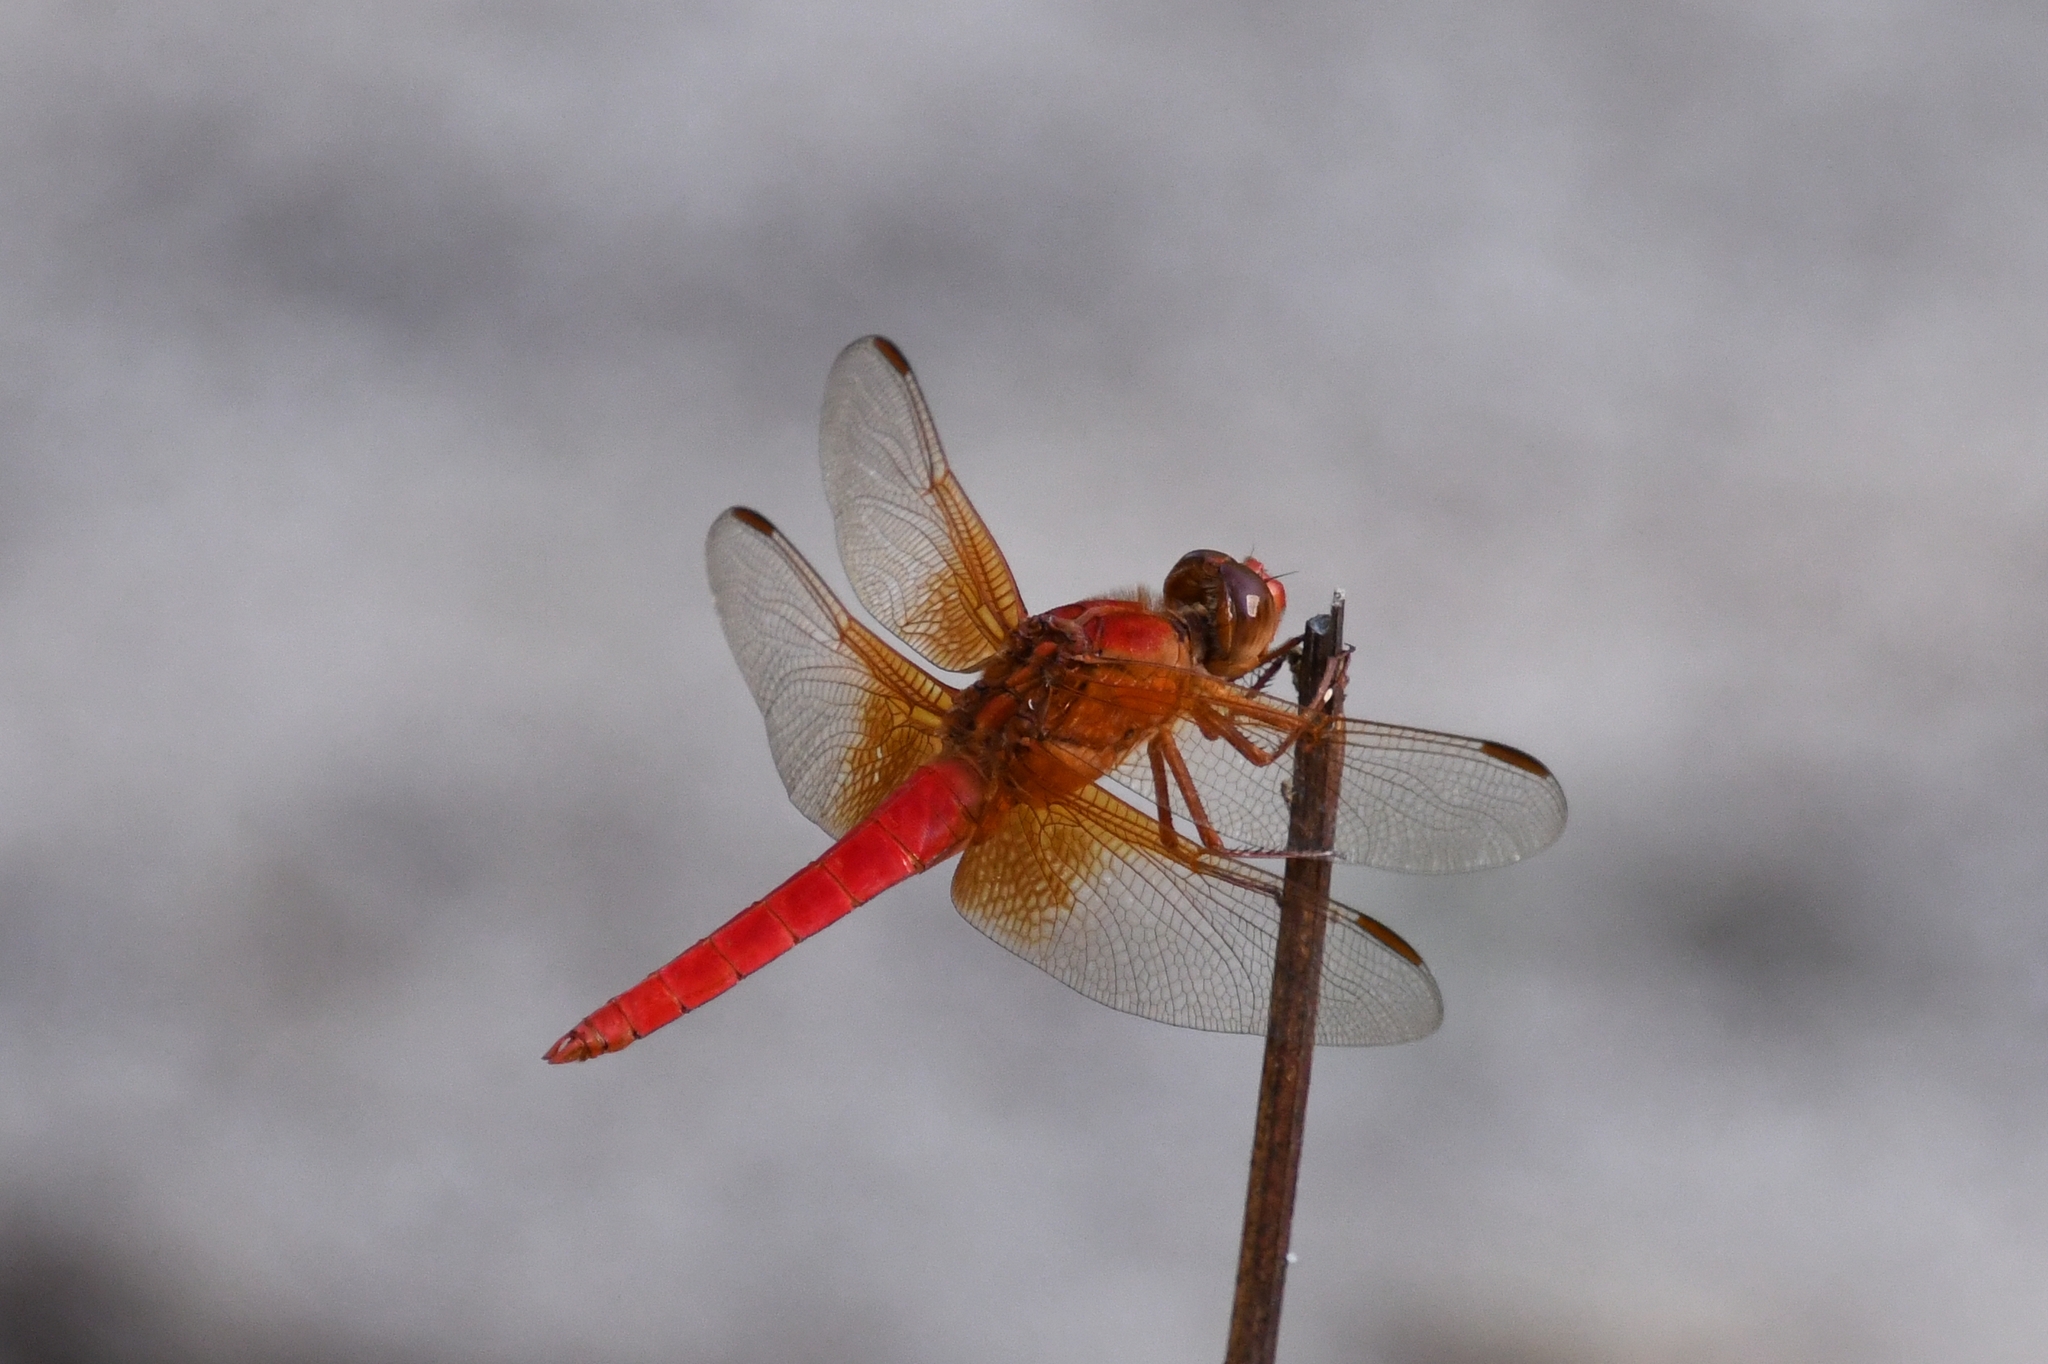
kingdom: Animalia
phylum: Arthropoda
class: Insecta
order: Odonata
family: Libellulidae
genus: Libellula
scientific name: Libellula croceipennis
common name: Neon skimmer
